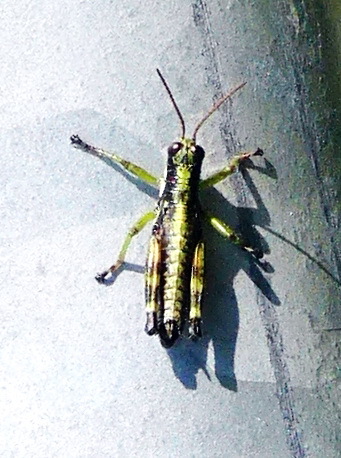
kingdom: Animalia
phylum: Arthropoda
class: Insecta
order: Orthoptera
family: Acrididae
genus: Booneacris
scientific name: Booneacris glacialis
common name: Wingless mountain grasshopper
